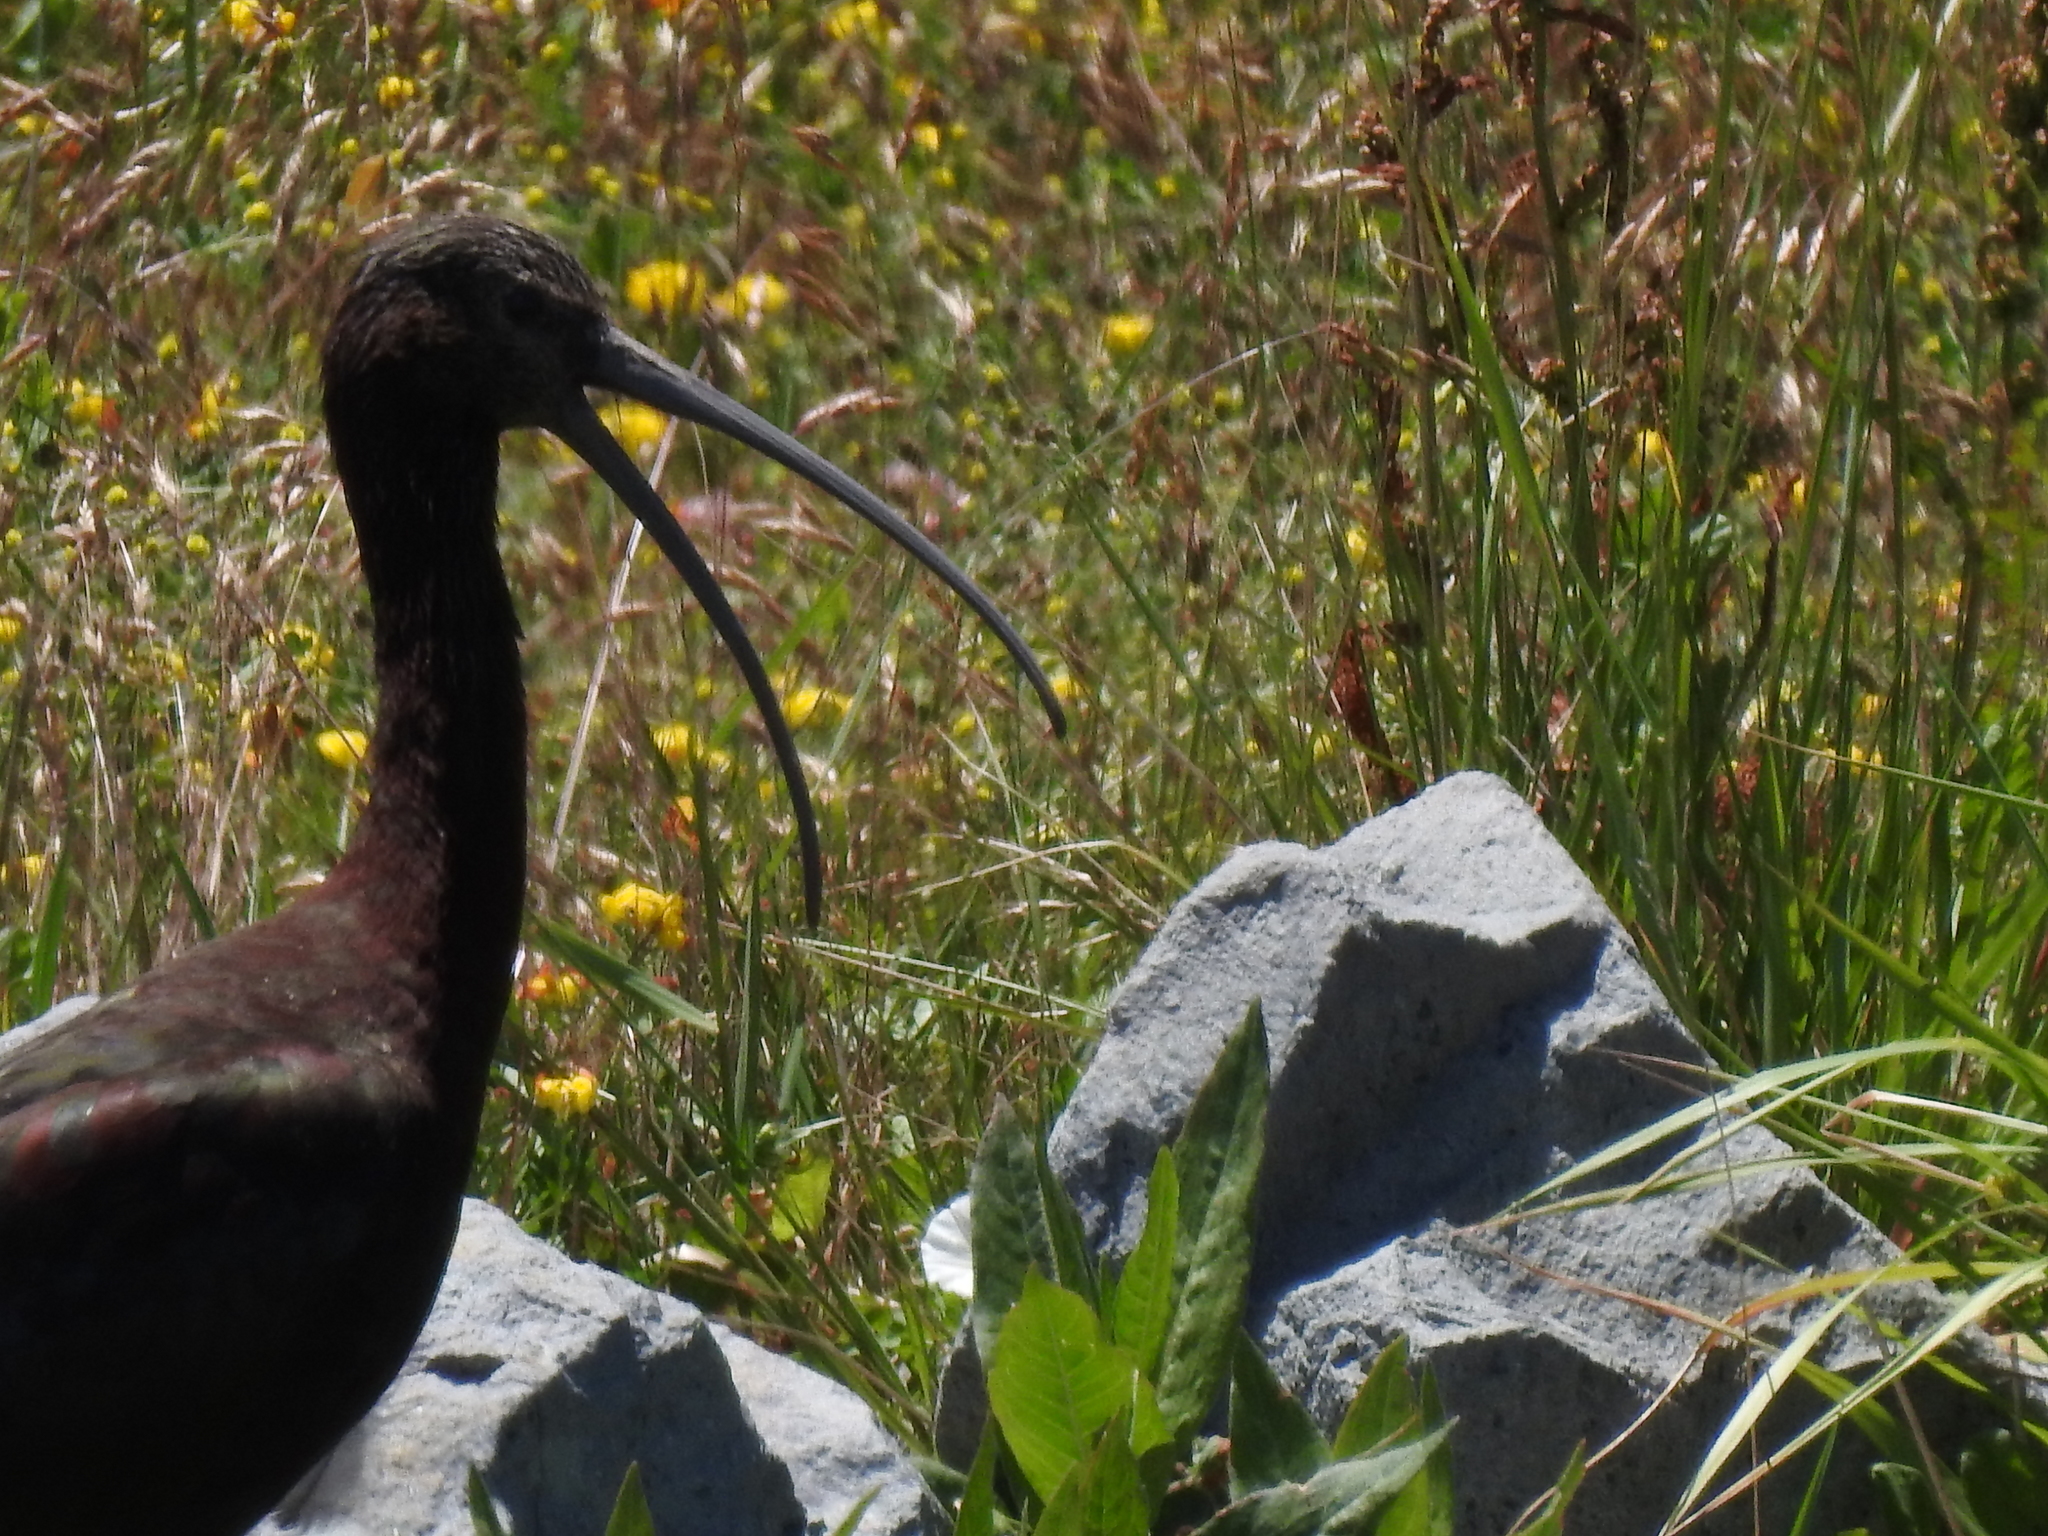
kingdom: Animalia
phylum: Chordata
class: Aves
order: Pelecaniformes
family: Threskiornithidae
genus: Plegadis
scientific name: Plegadis chihi
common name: White-faced ibis
